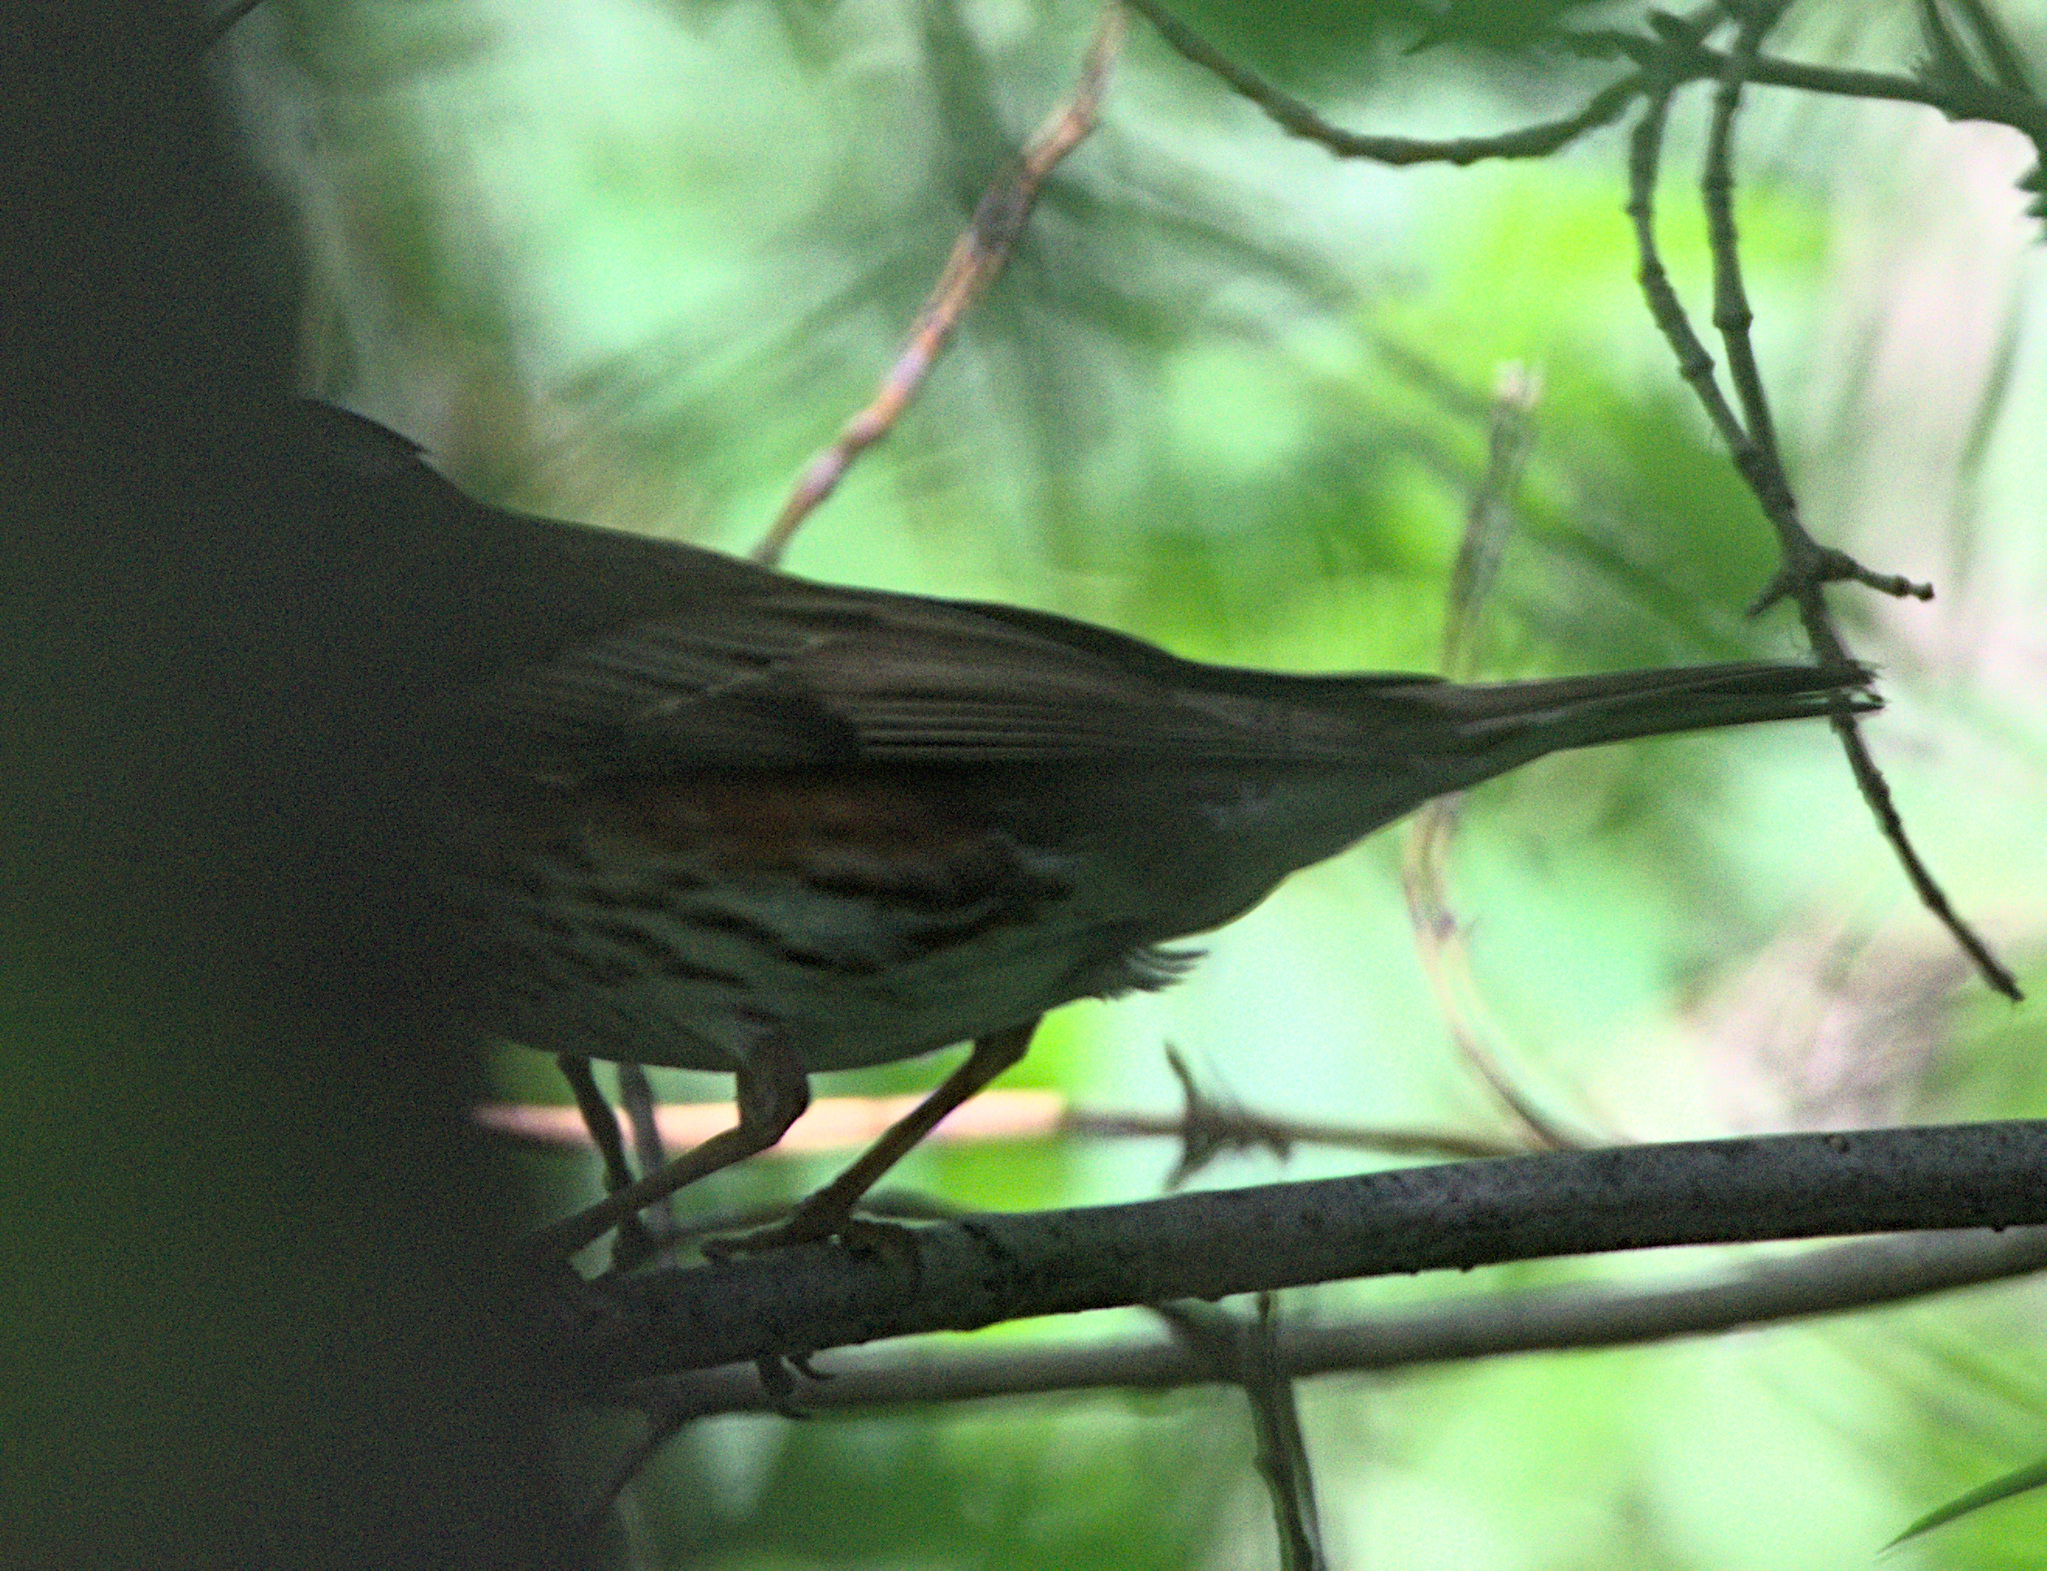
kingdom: Animalia
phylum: Chordata
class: Aves
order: Passeriformes
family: Turdidae
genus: Turdus
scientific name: Turdus iliacus
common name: Redwing
